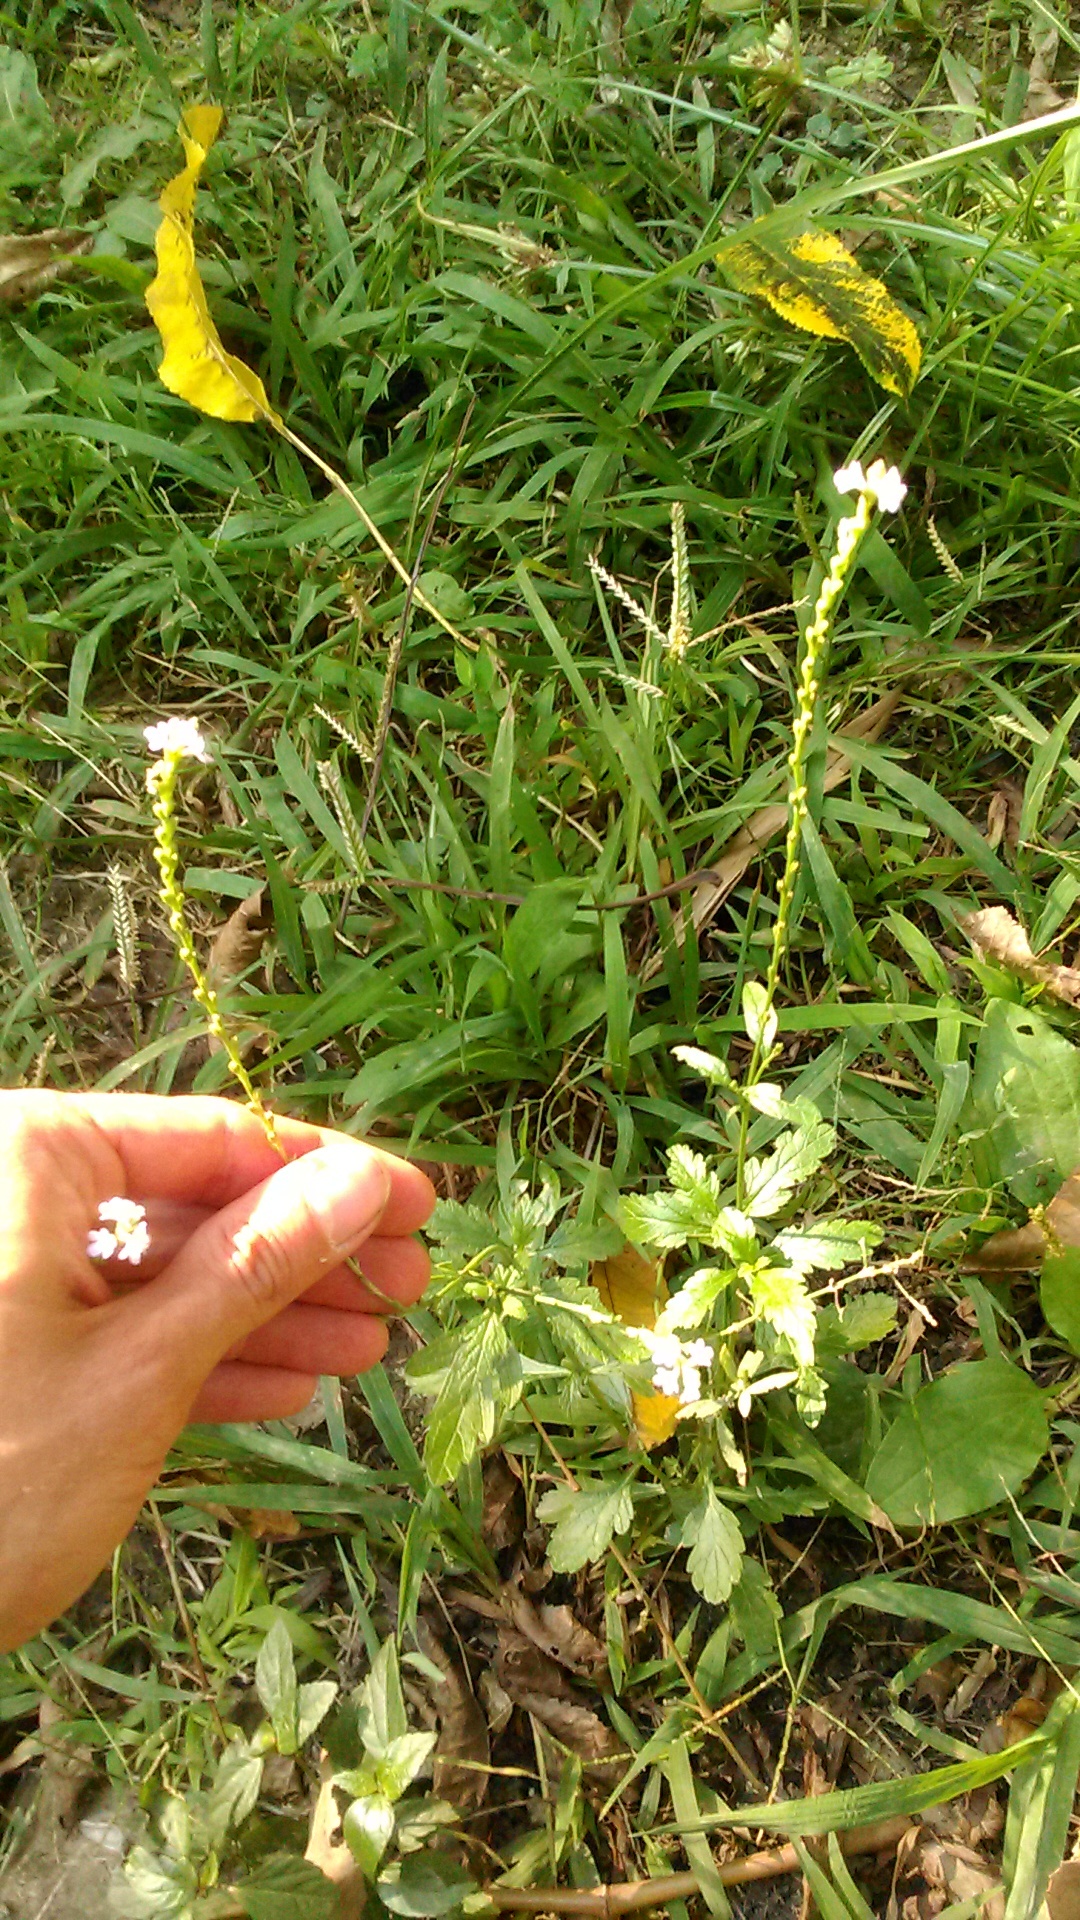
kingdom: Plantae
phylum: Tracheophyta
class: Magnoliopsida
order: Lamiales
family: Verbenaceae
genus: Verbena
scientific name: Verbena officinalis
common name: Vervain
